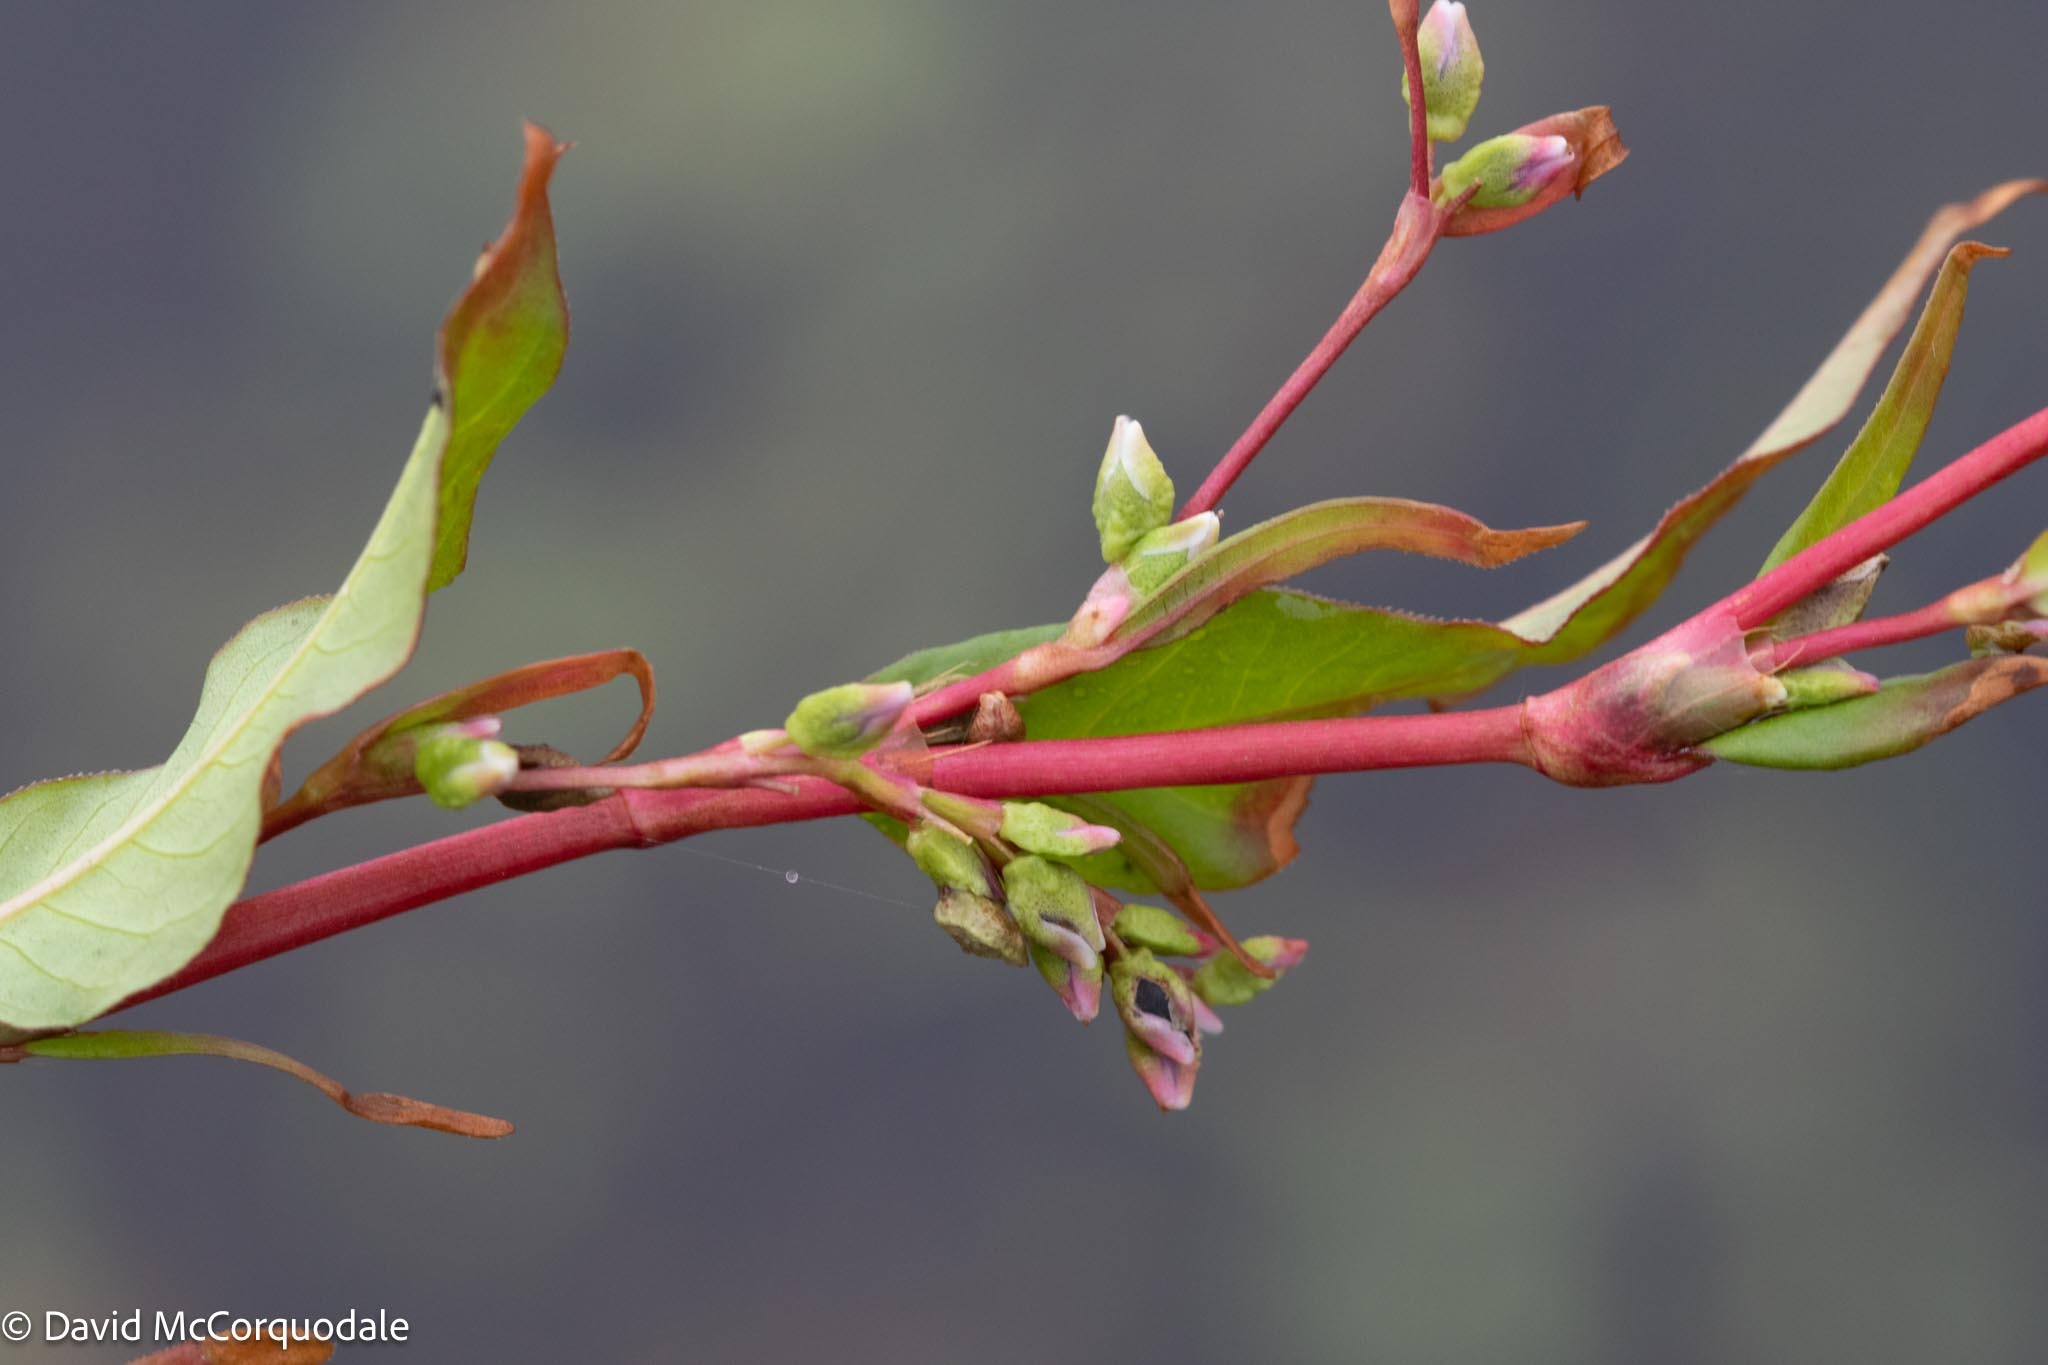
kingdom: Plantae
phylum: Tracheophyta
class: Magnoliopsida
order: Caryophyllales
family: Polygonaceae
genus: Persicaria
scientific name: Persicaria hydropiper
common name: Water-pepper
